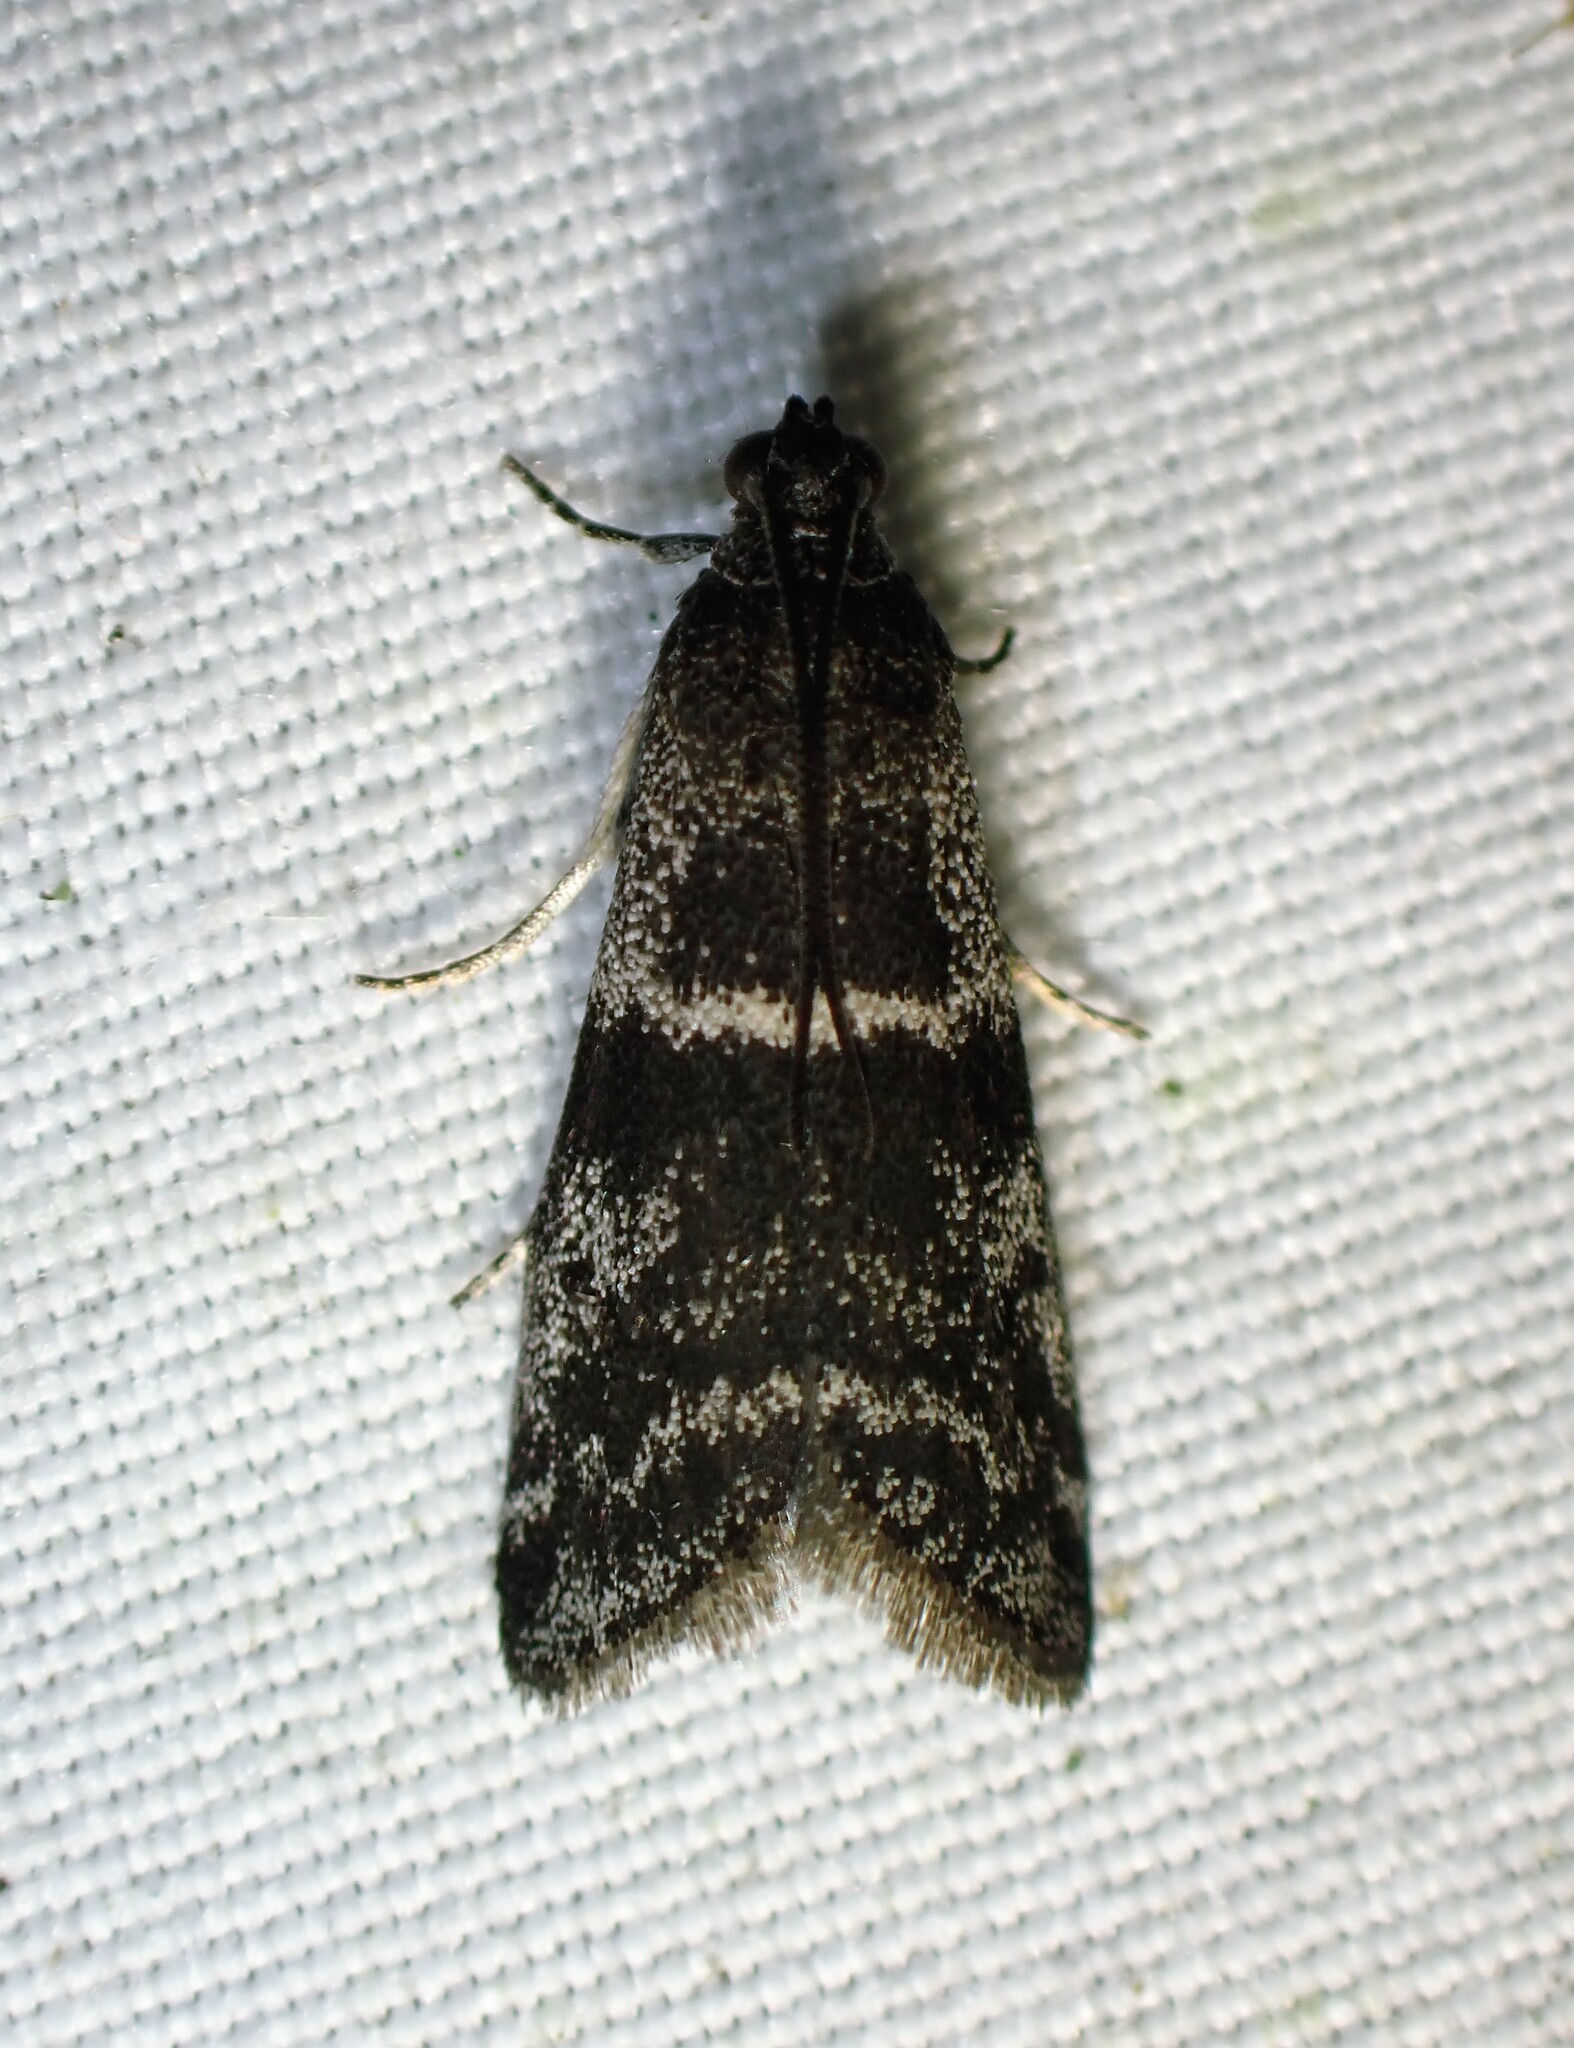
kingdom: Animalia
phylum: Arthropoda
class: Insecta
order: Lepidoptera
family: Pyralidae
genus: Apomyelois
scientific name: Apomyelois bistriatella
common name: Heath knot-horn
